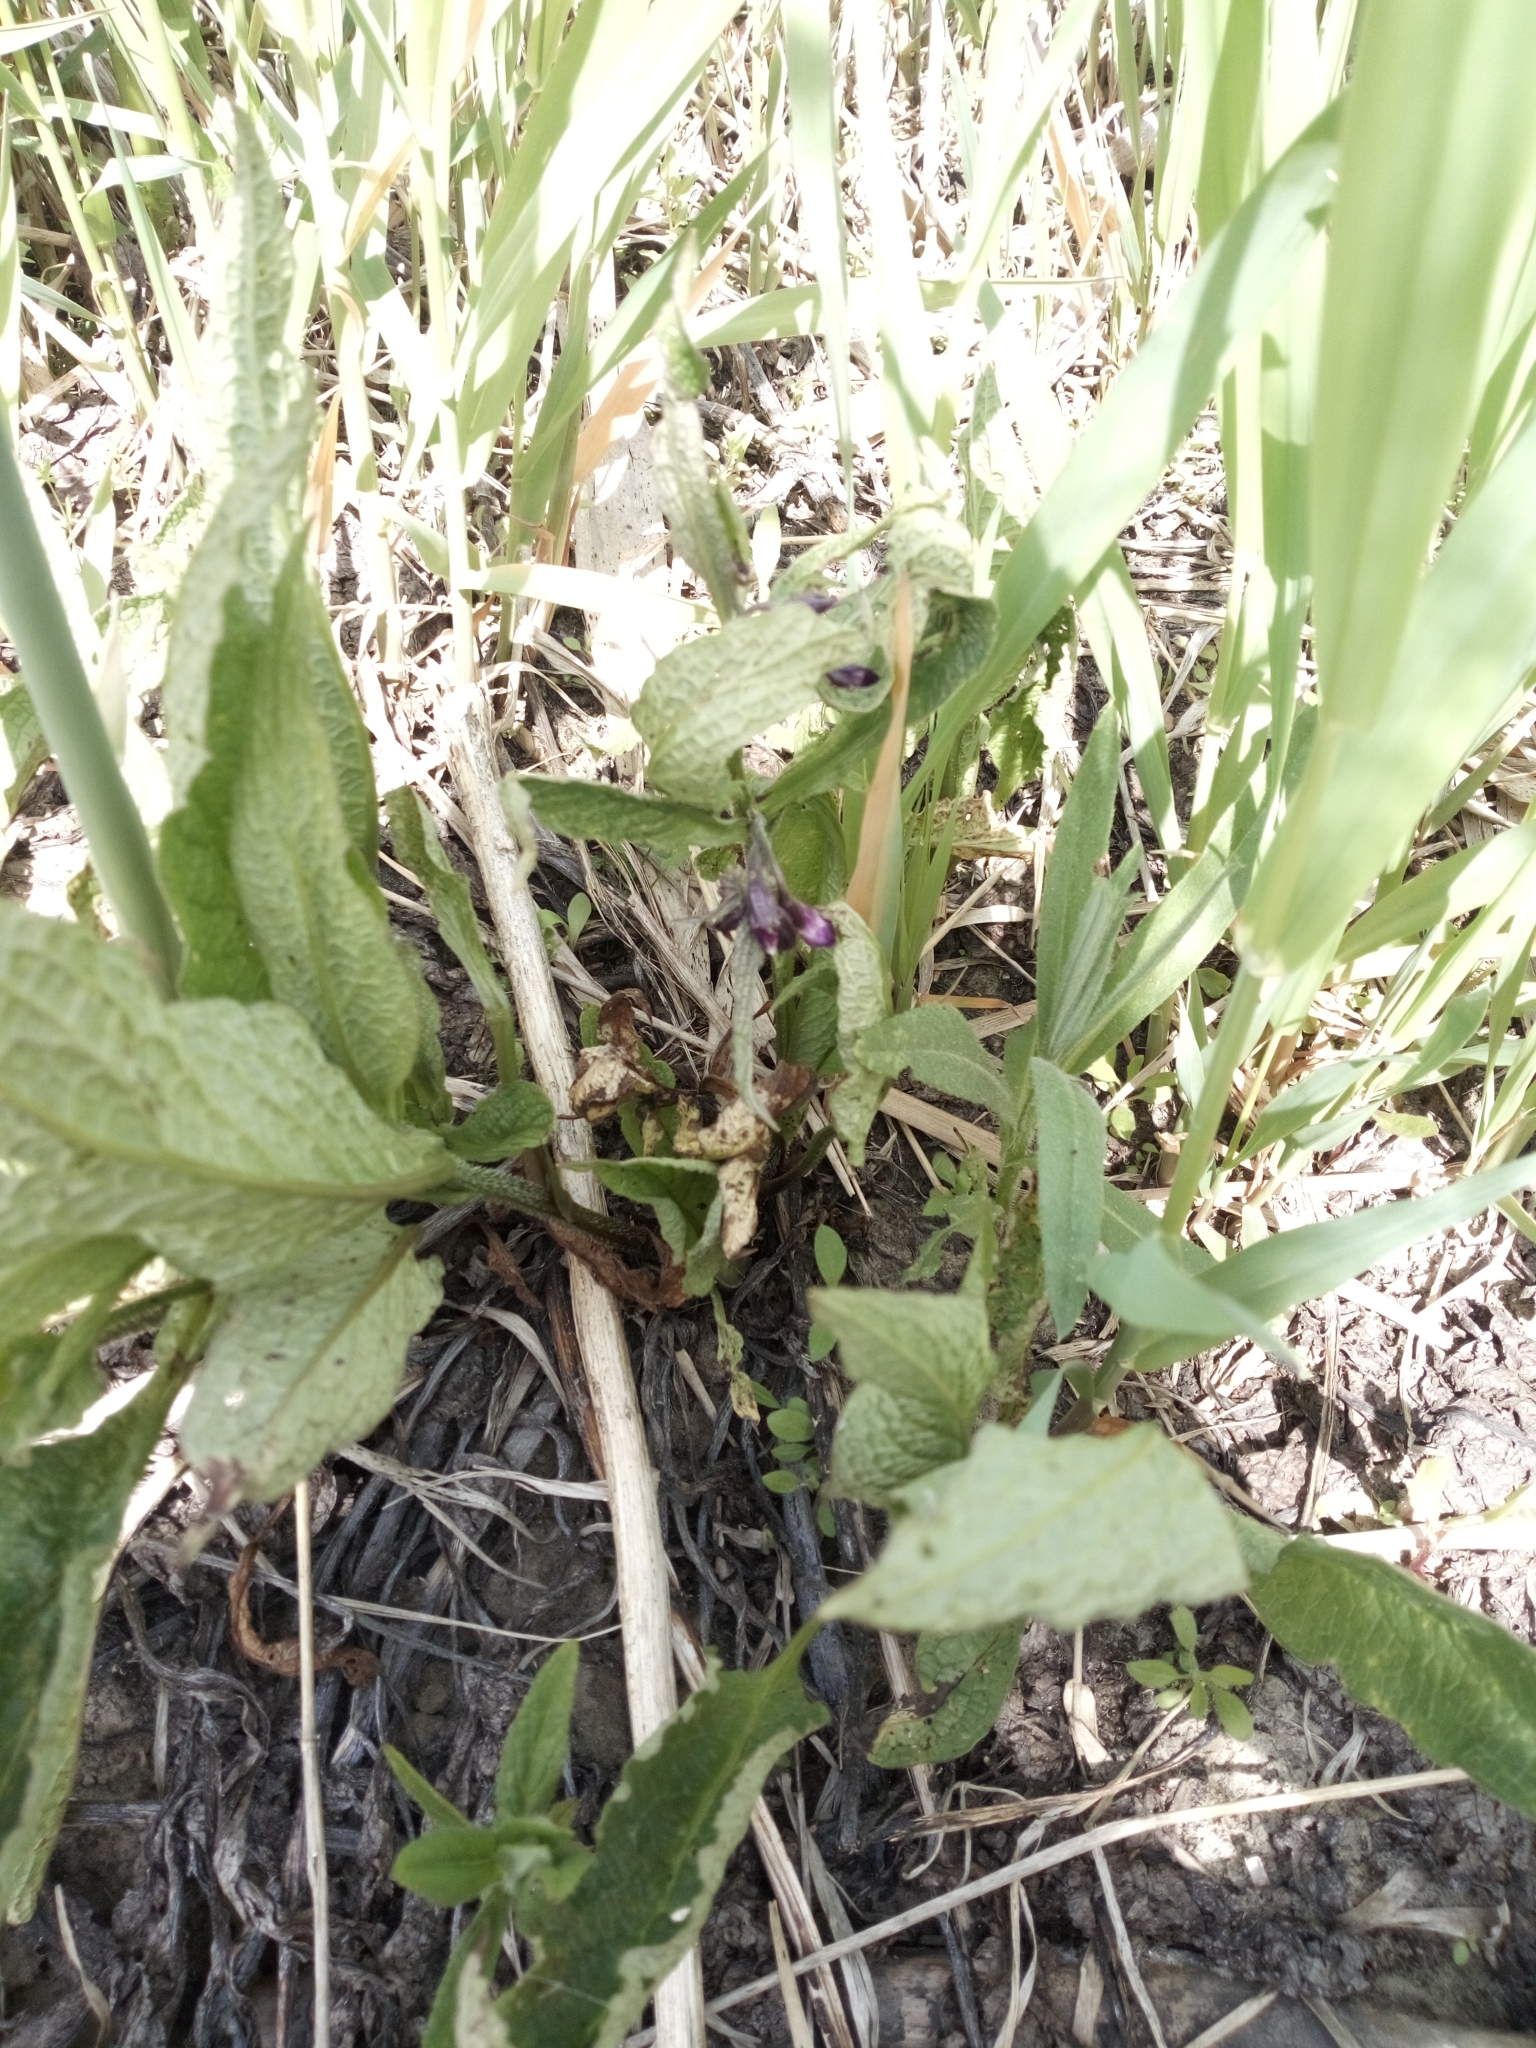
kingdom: Plantae
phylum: Tracheophyta
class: Magnoliopsida
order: Boraginales
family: Boraginaceae
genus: Symphytum
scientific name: Symphytum officinale
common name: Common comfrey
